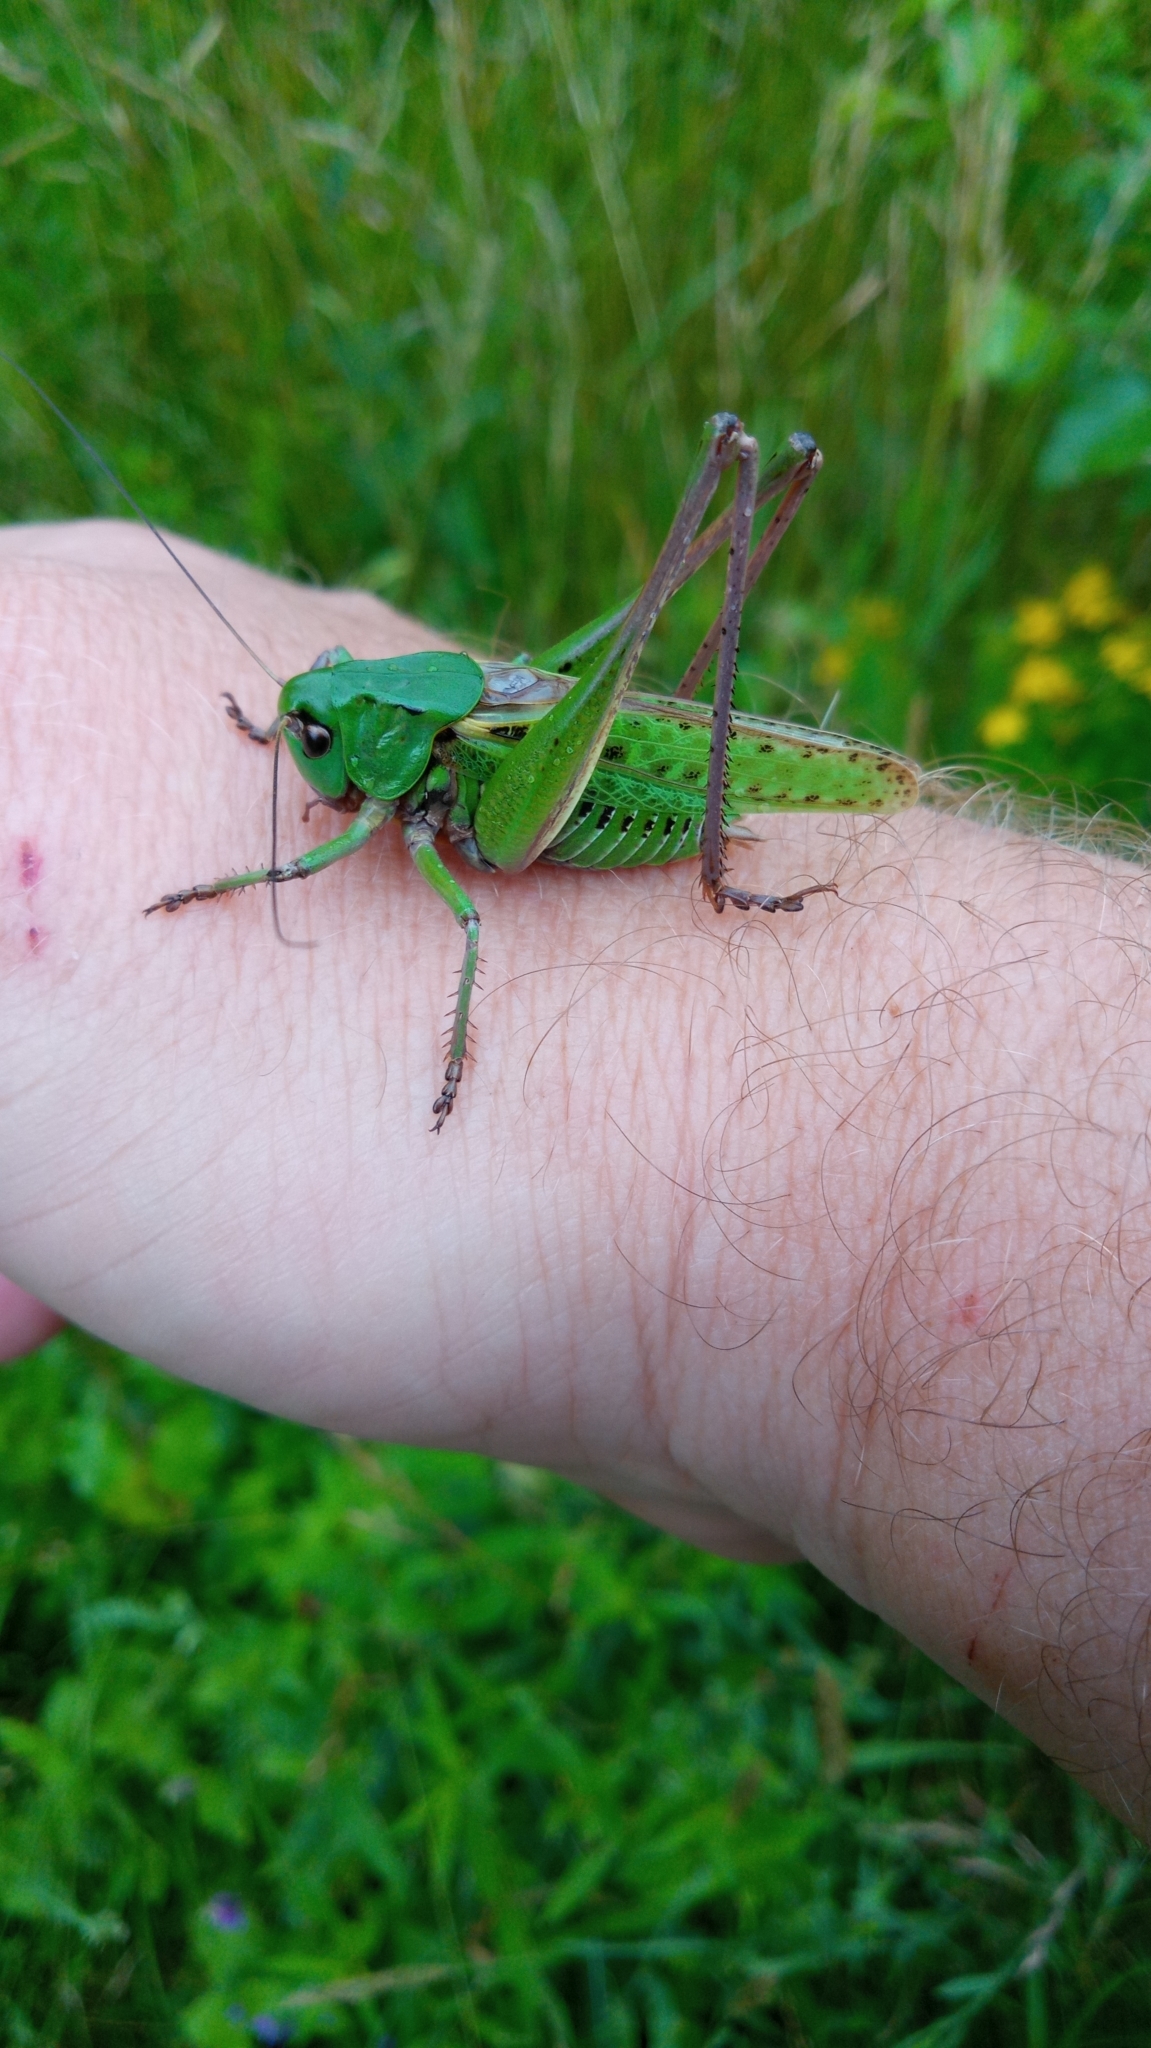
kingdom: Animalia
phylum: Arthropoda
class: Insecta
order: Orthoptera
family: Tettigoniidae
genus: Decticus
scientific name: Decticus verrucivorus
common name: Wart-biter
